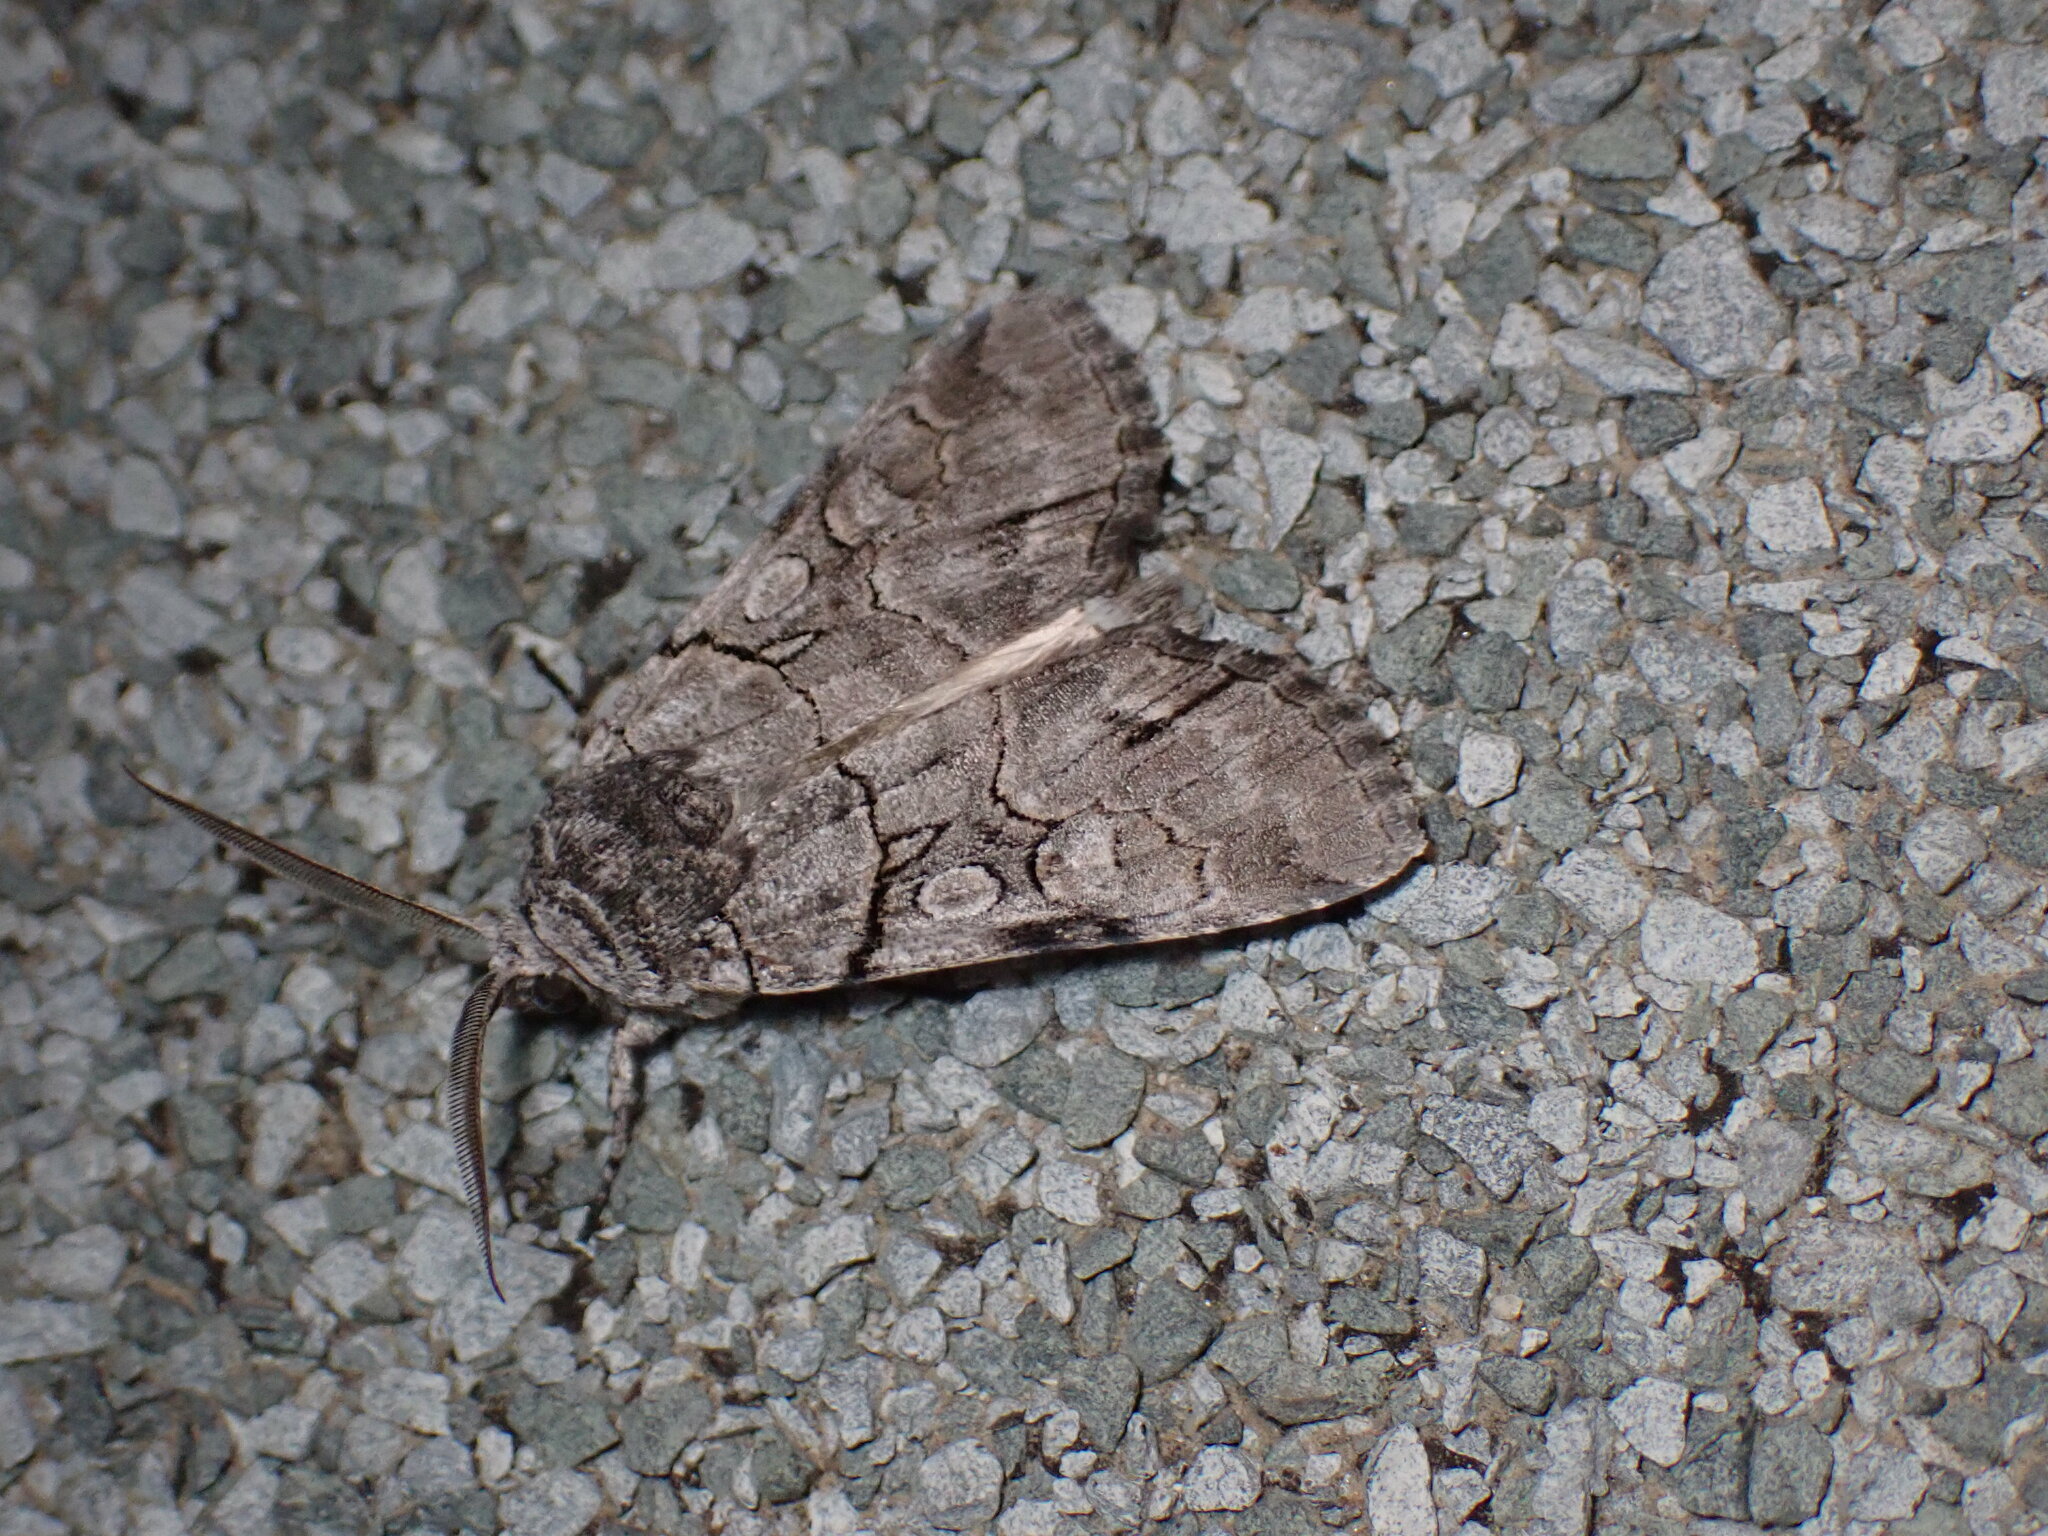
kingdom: Animalia
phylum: Arthropoda
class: Insecta
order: Lepidoptera
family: Noctuidae
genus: Sympistis
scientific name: Sympistis chionanthi
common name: Fringe-tree sallow
